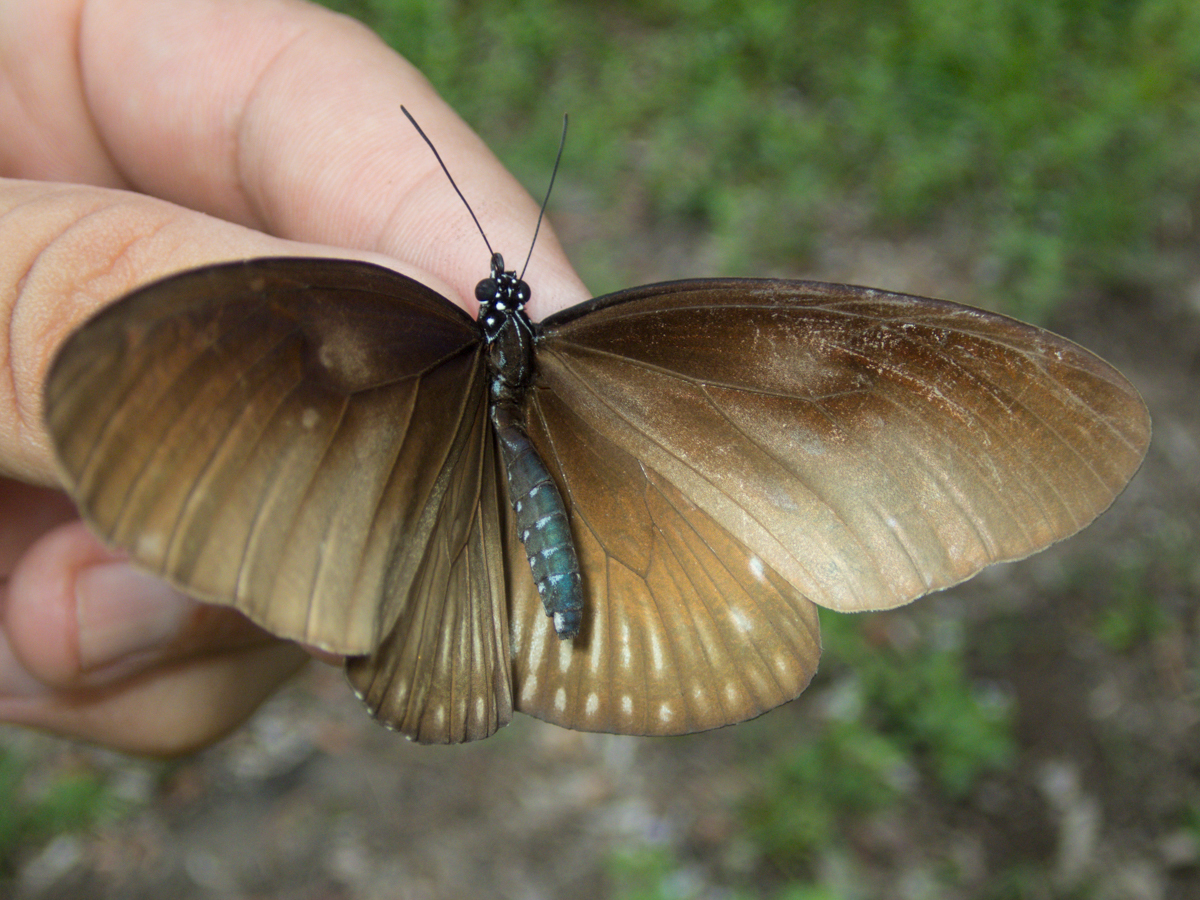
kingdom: Animalia
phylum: Arthropoda
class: Insecta
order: Lepidoptera
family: Nymphalidae
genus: Euploea
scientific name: Euploea eyndhovii
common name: Striped black crow butterfly
